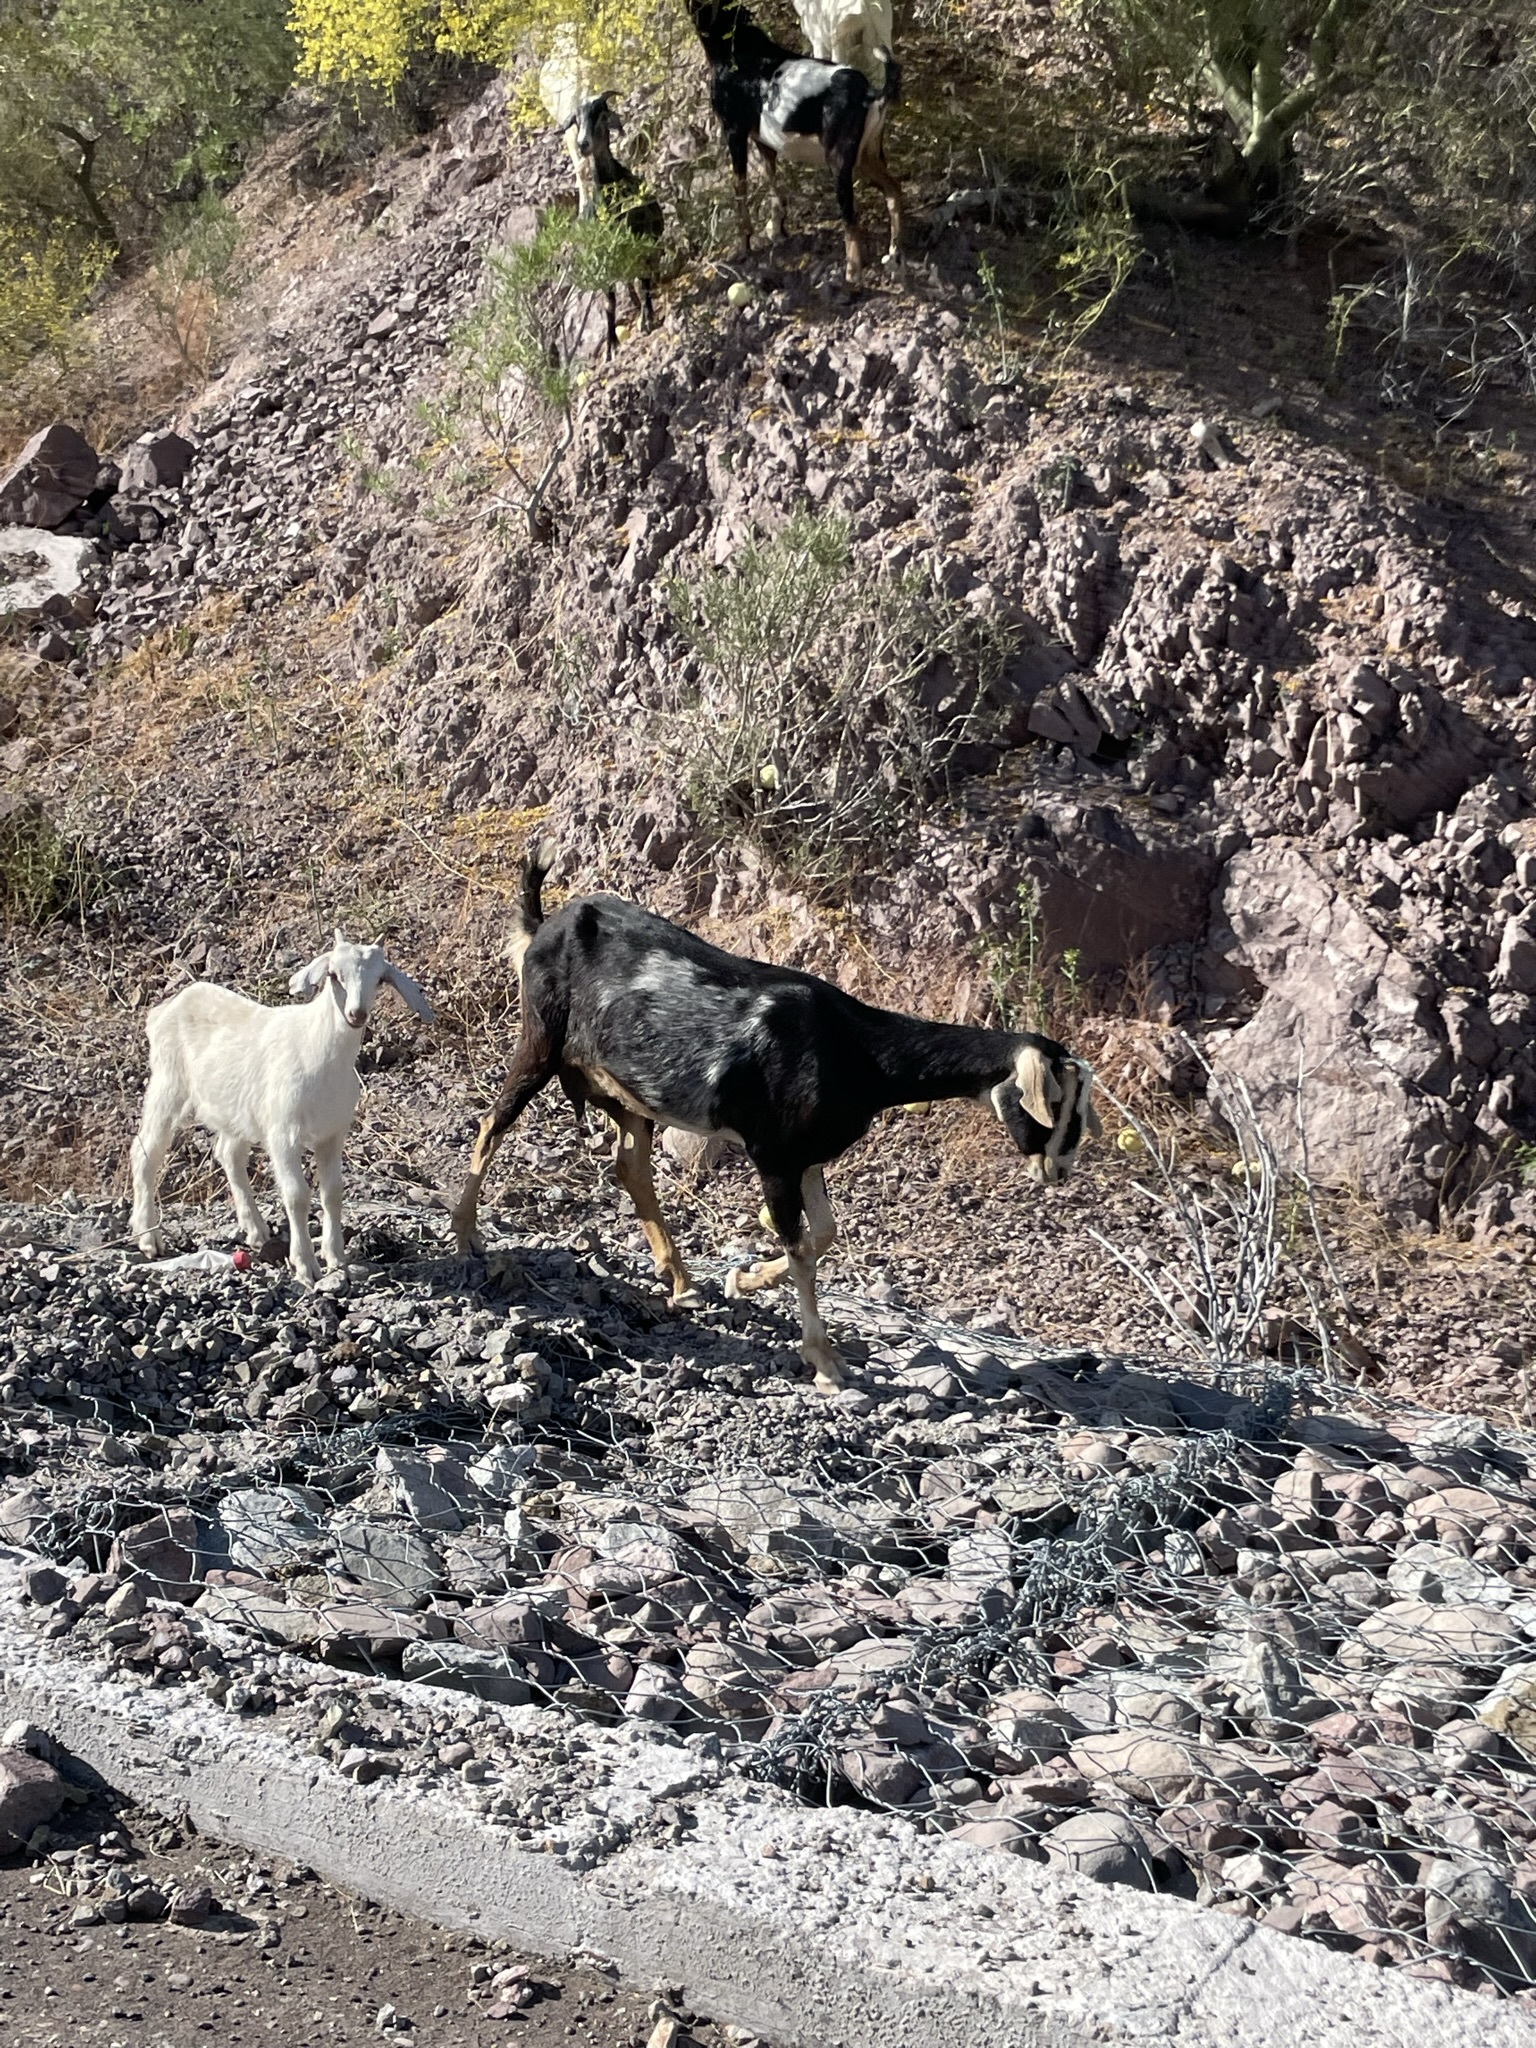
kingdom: Animalia
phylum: Chordata
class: Mammalia
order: Artiodactyla
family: Bovidae
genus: Capra
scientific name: Capra hircus
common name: Domestic goat
